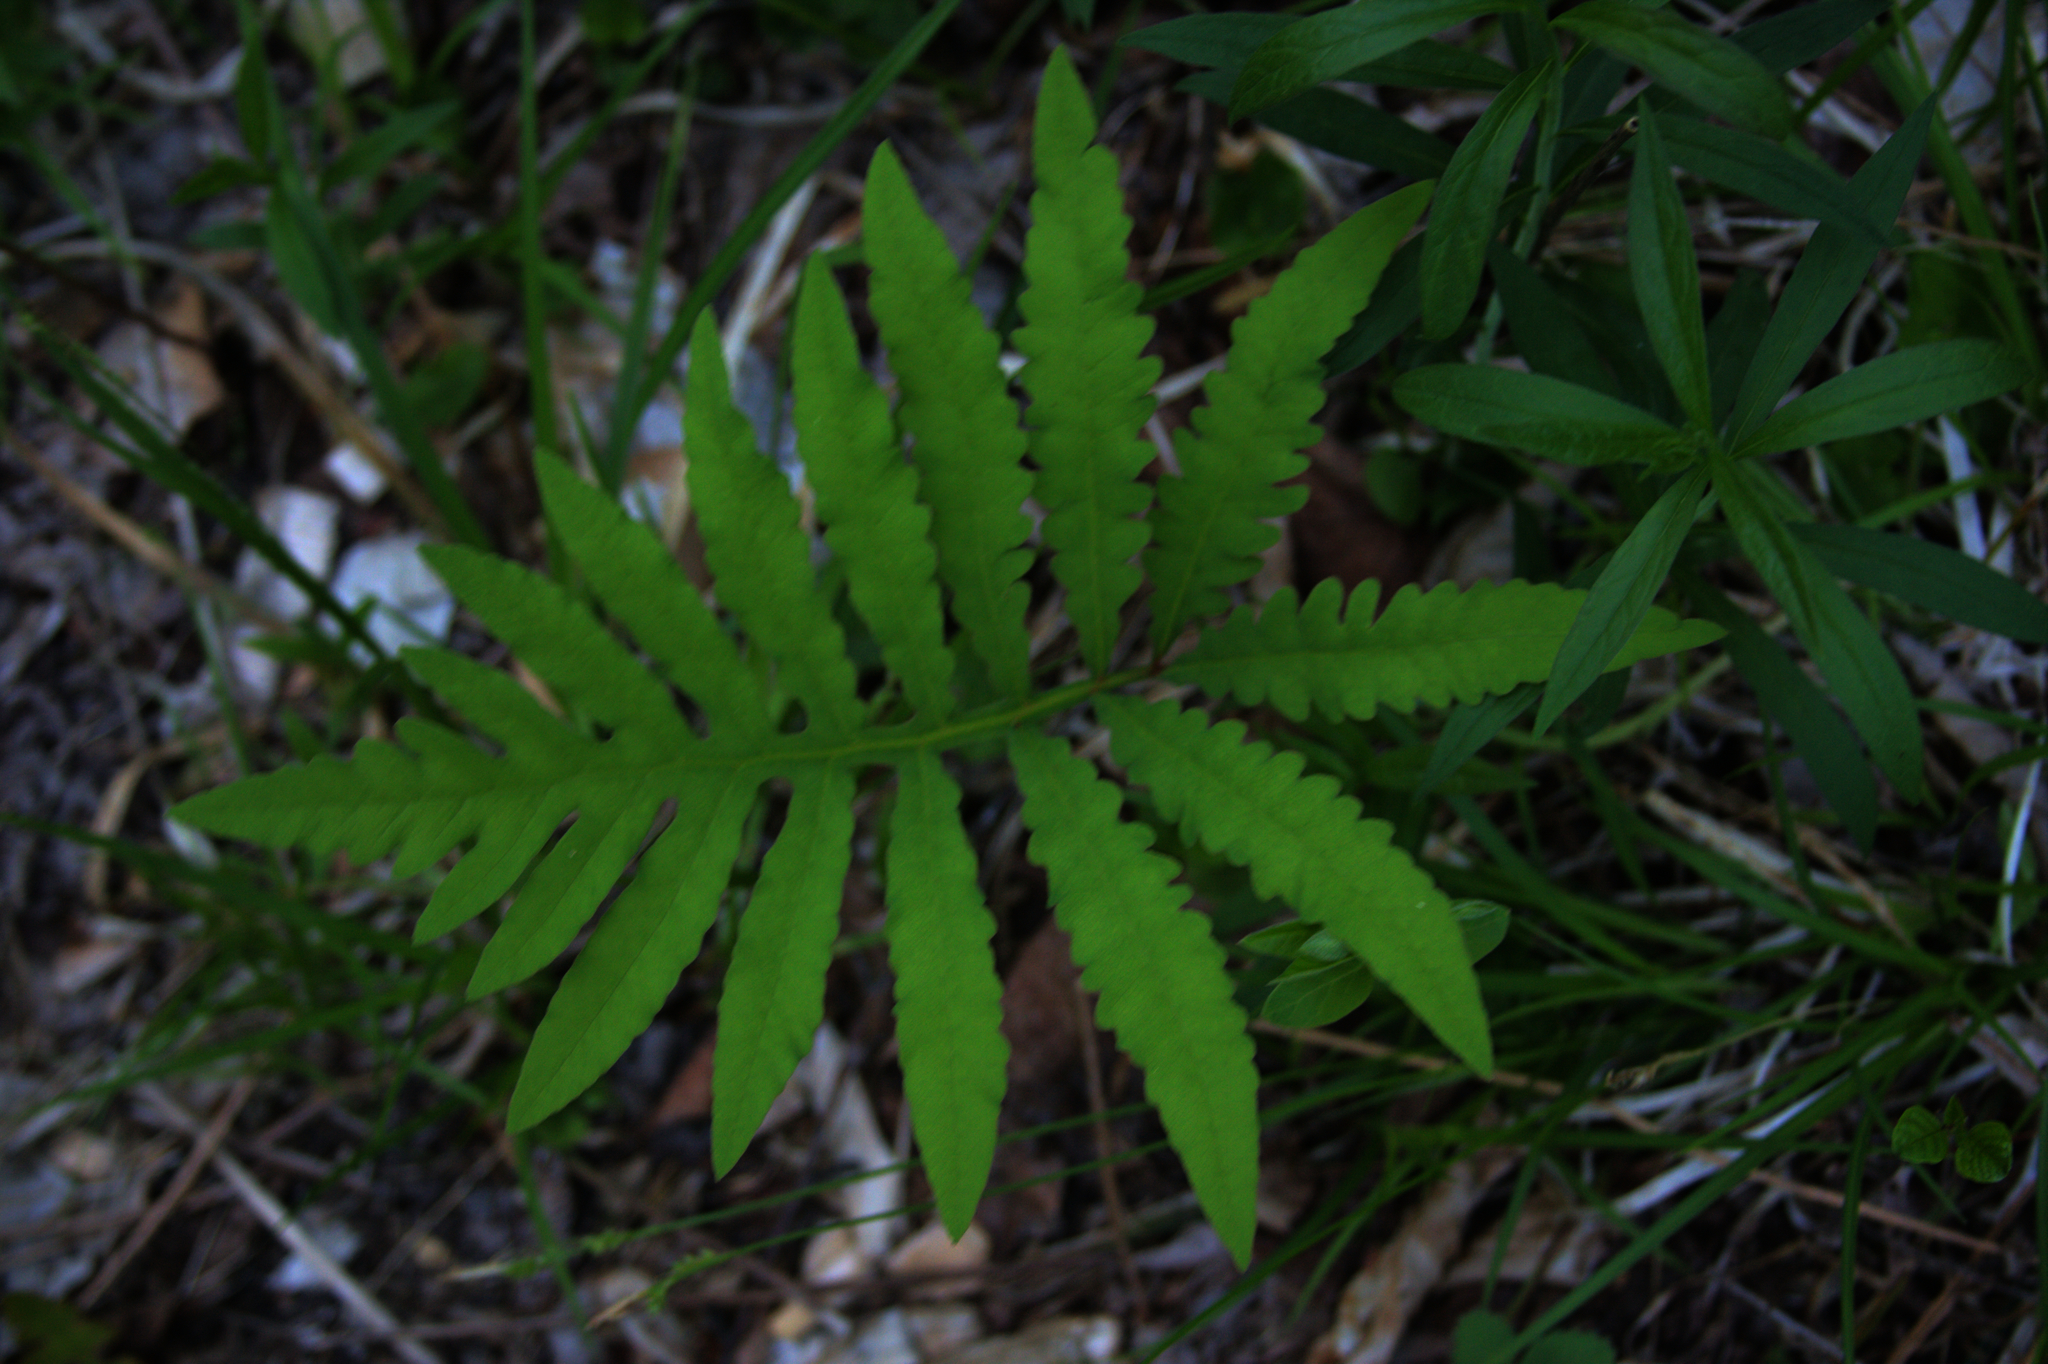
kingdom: Plantae
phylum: Tracheophyta
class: Polypodiopsida
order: Polypodiales
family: Onocleaceae
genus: Onoclea
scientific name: Onoclea sensibilis
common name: Sensitive fern
